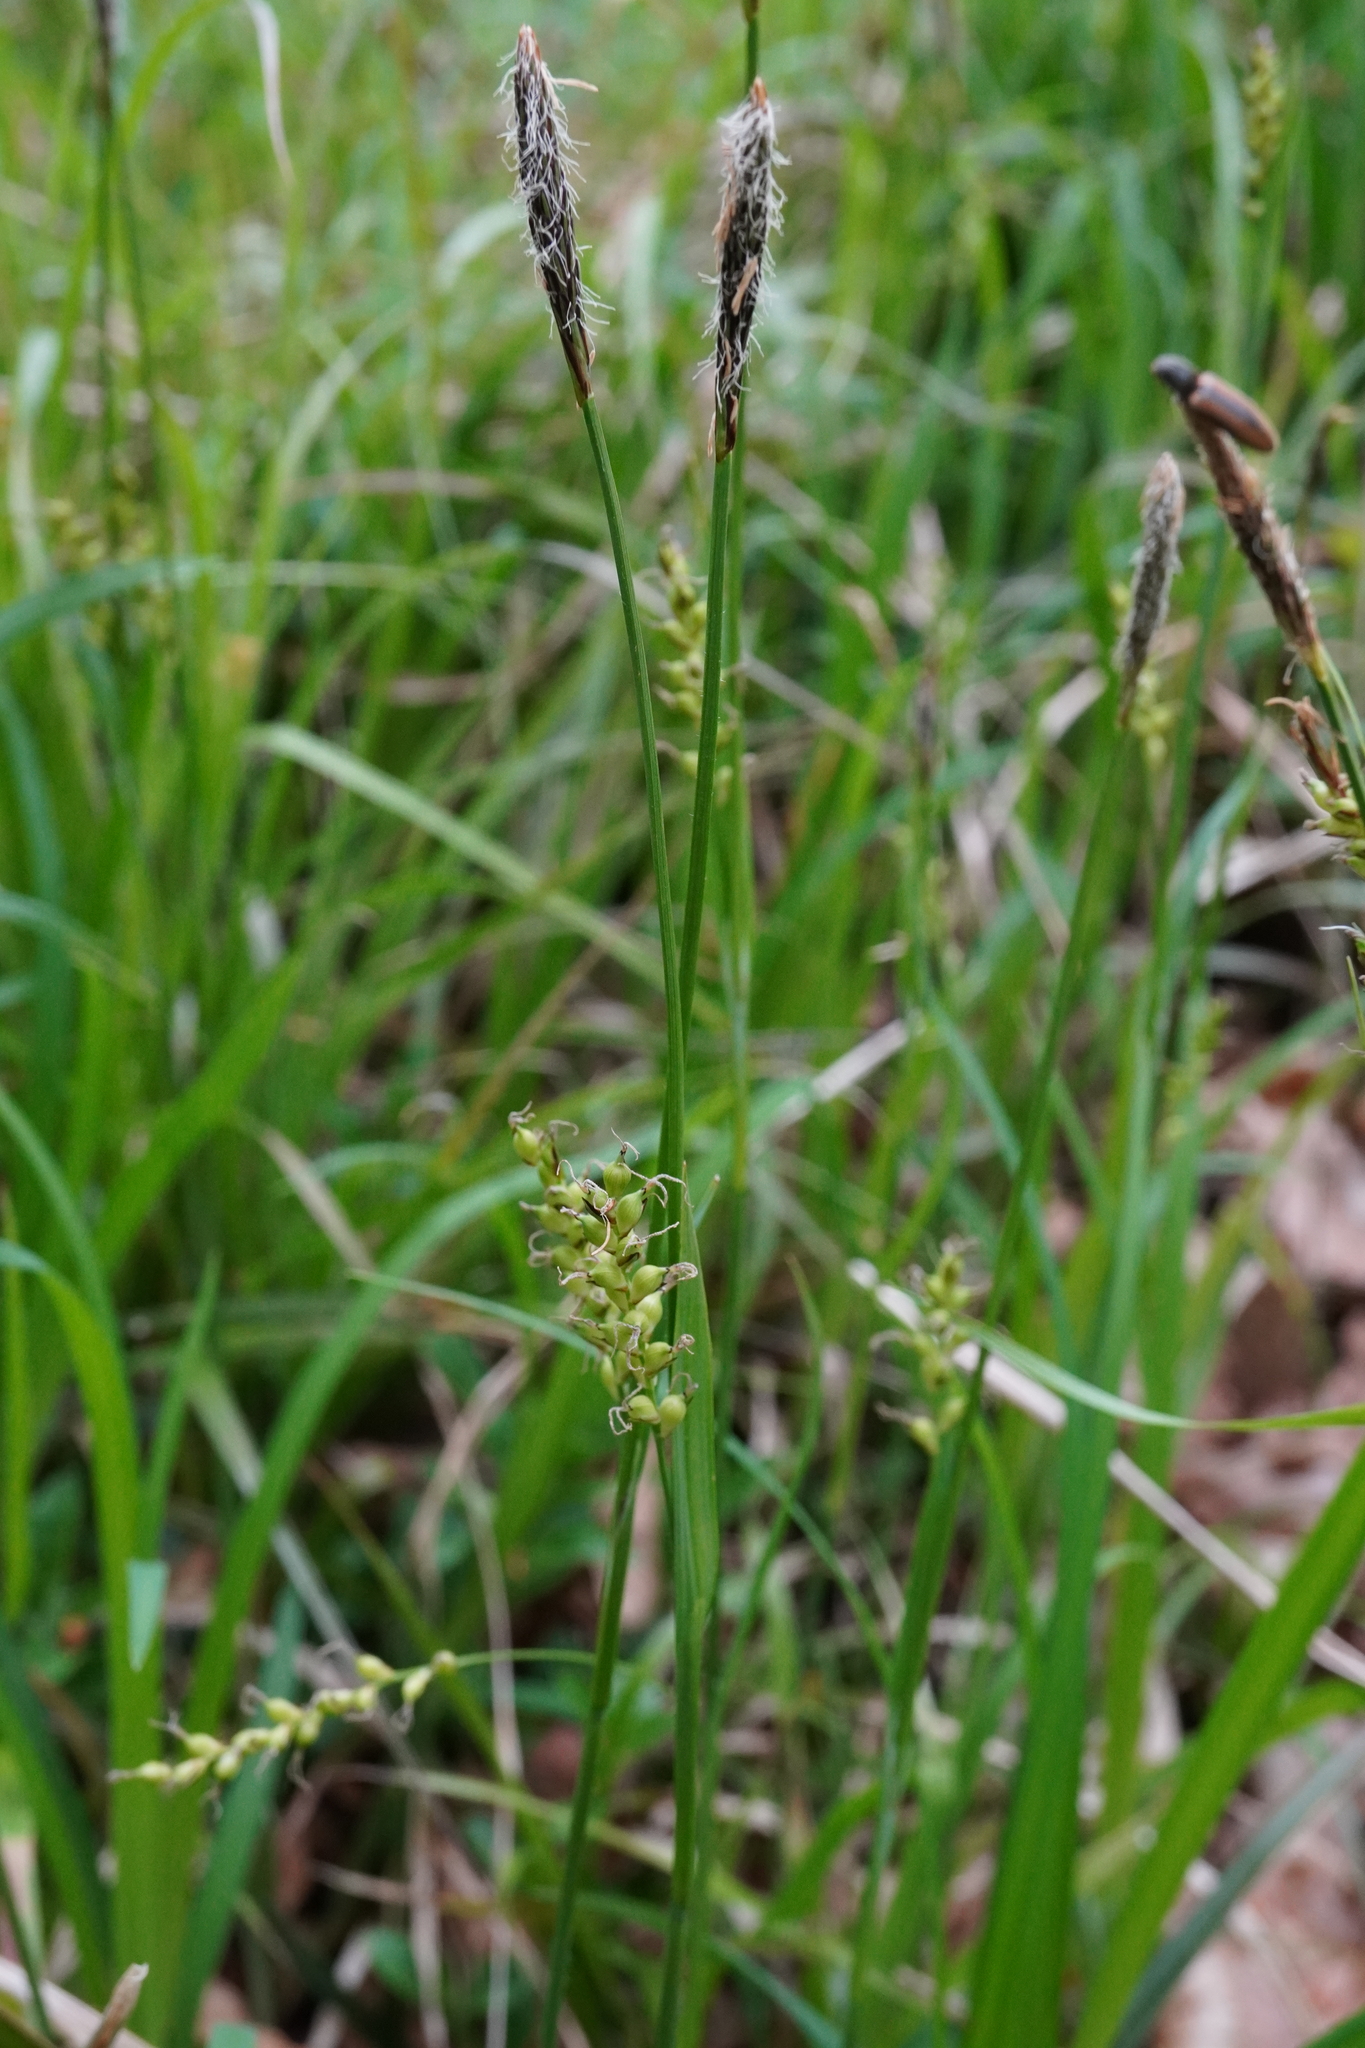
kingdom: Plantae
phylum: Tracheophyta
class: Liliopsida
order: Poales
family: Cyperaceae
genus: Carex
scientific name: Carex pilosa
